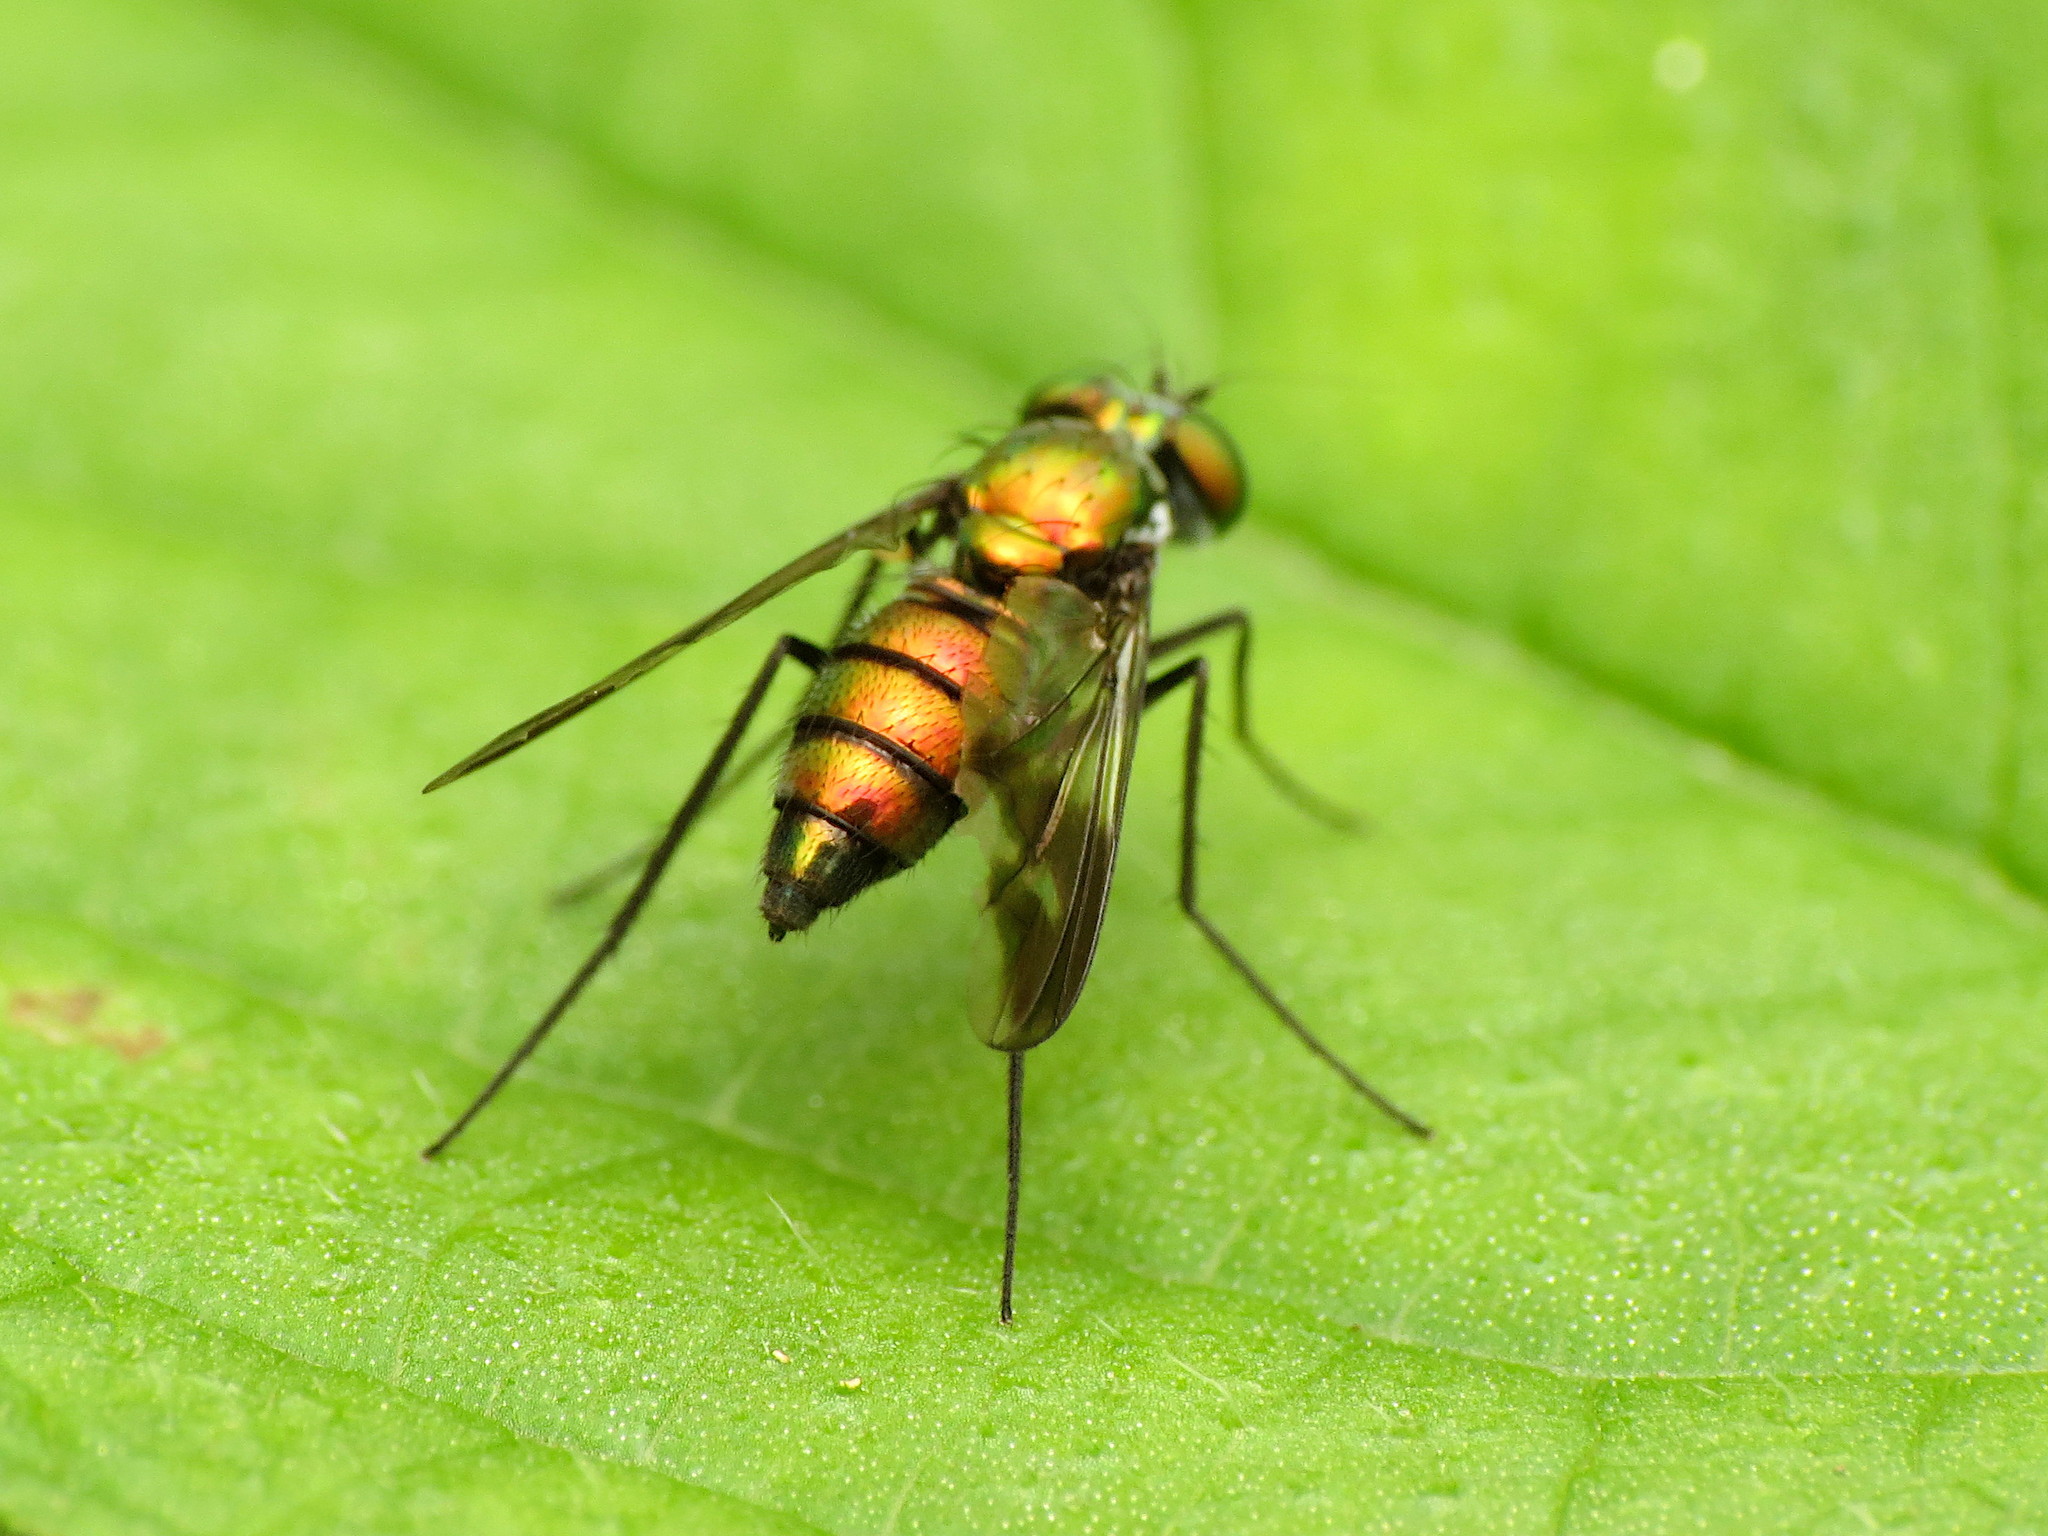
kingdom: Animalia
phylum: Arthropoda
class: Insecta
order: Diptera
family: Dolichopodidae
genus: Condylostylus
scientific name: Condylostylus patibulatus
